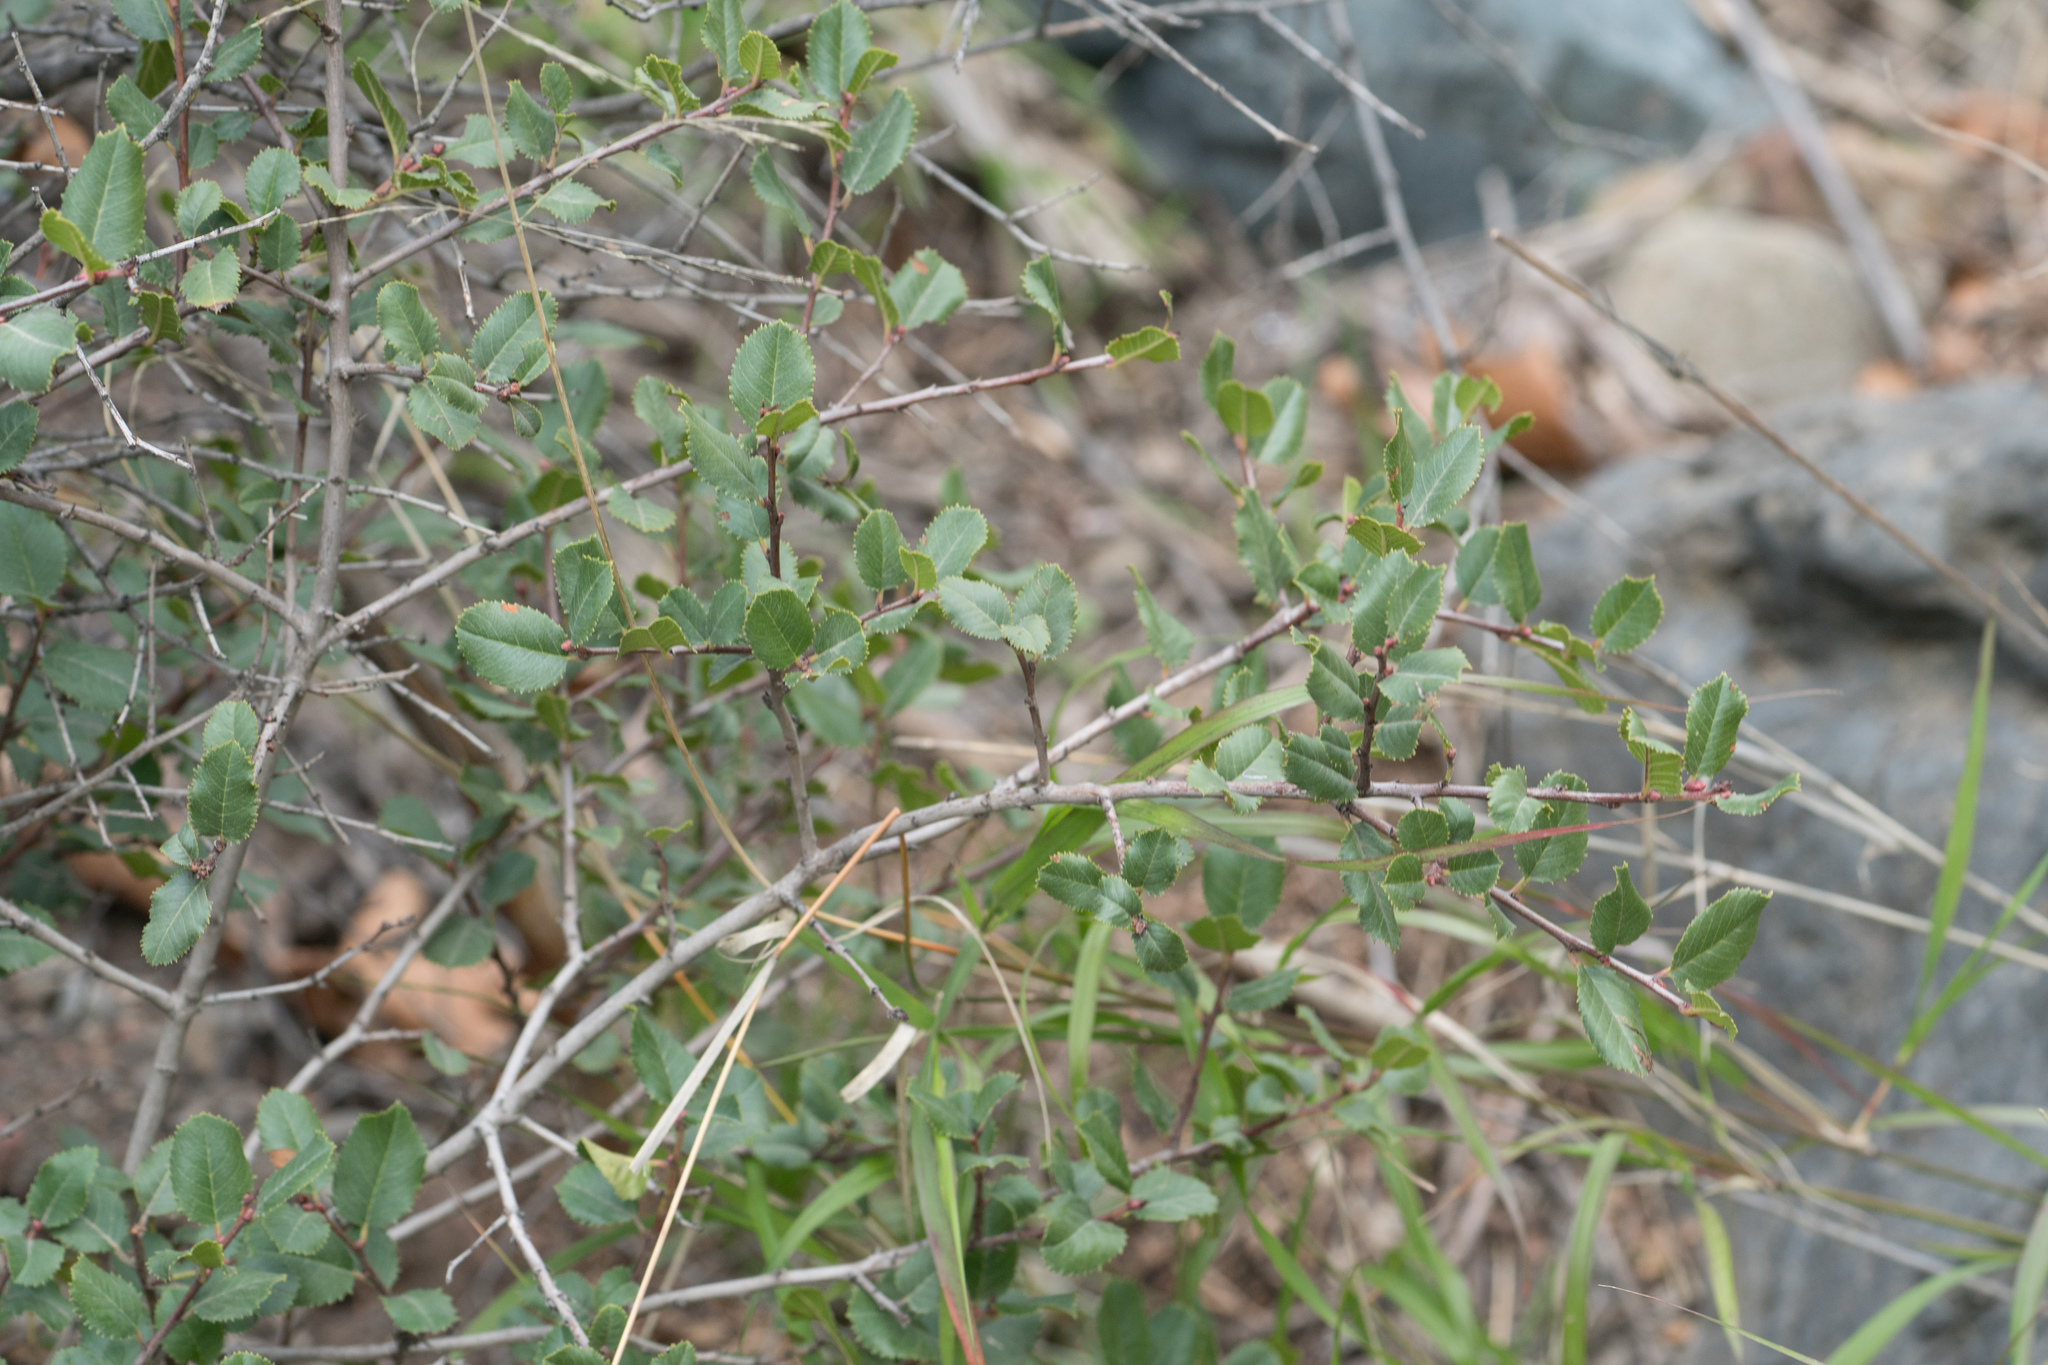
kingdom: Plantae
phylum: Tracheophyta
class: Magnoliopsida
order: Rosales
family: Rhamnaceae
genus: Endotropis
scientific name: Endotropis crocea
